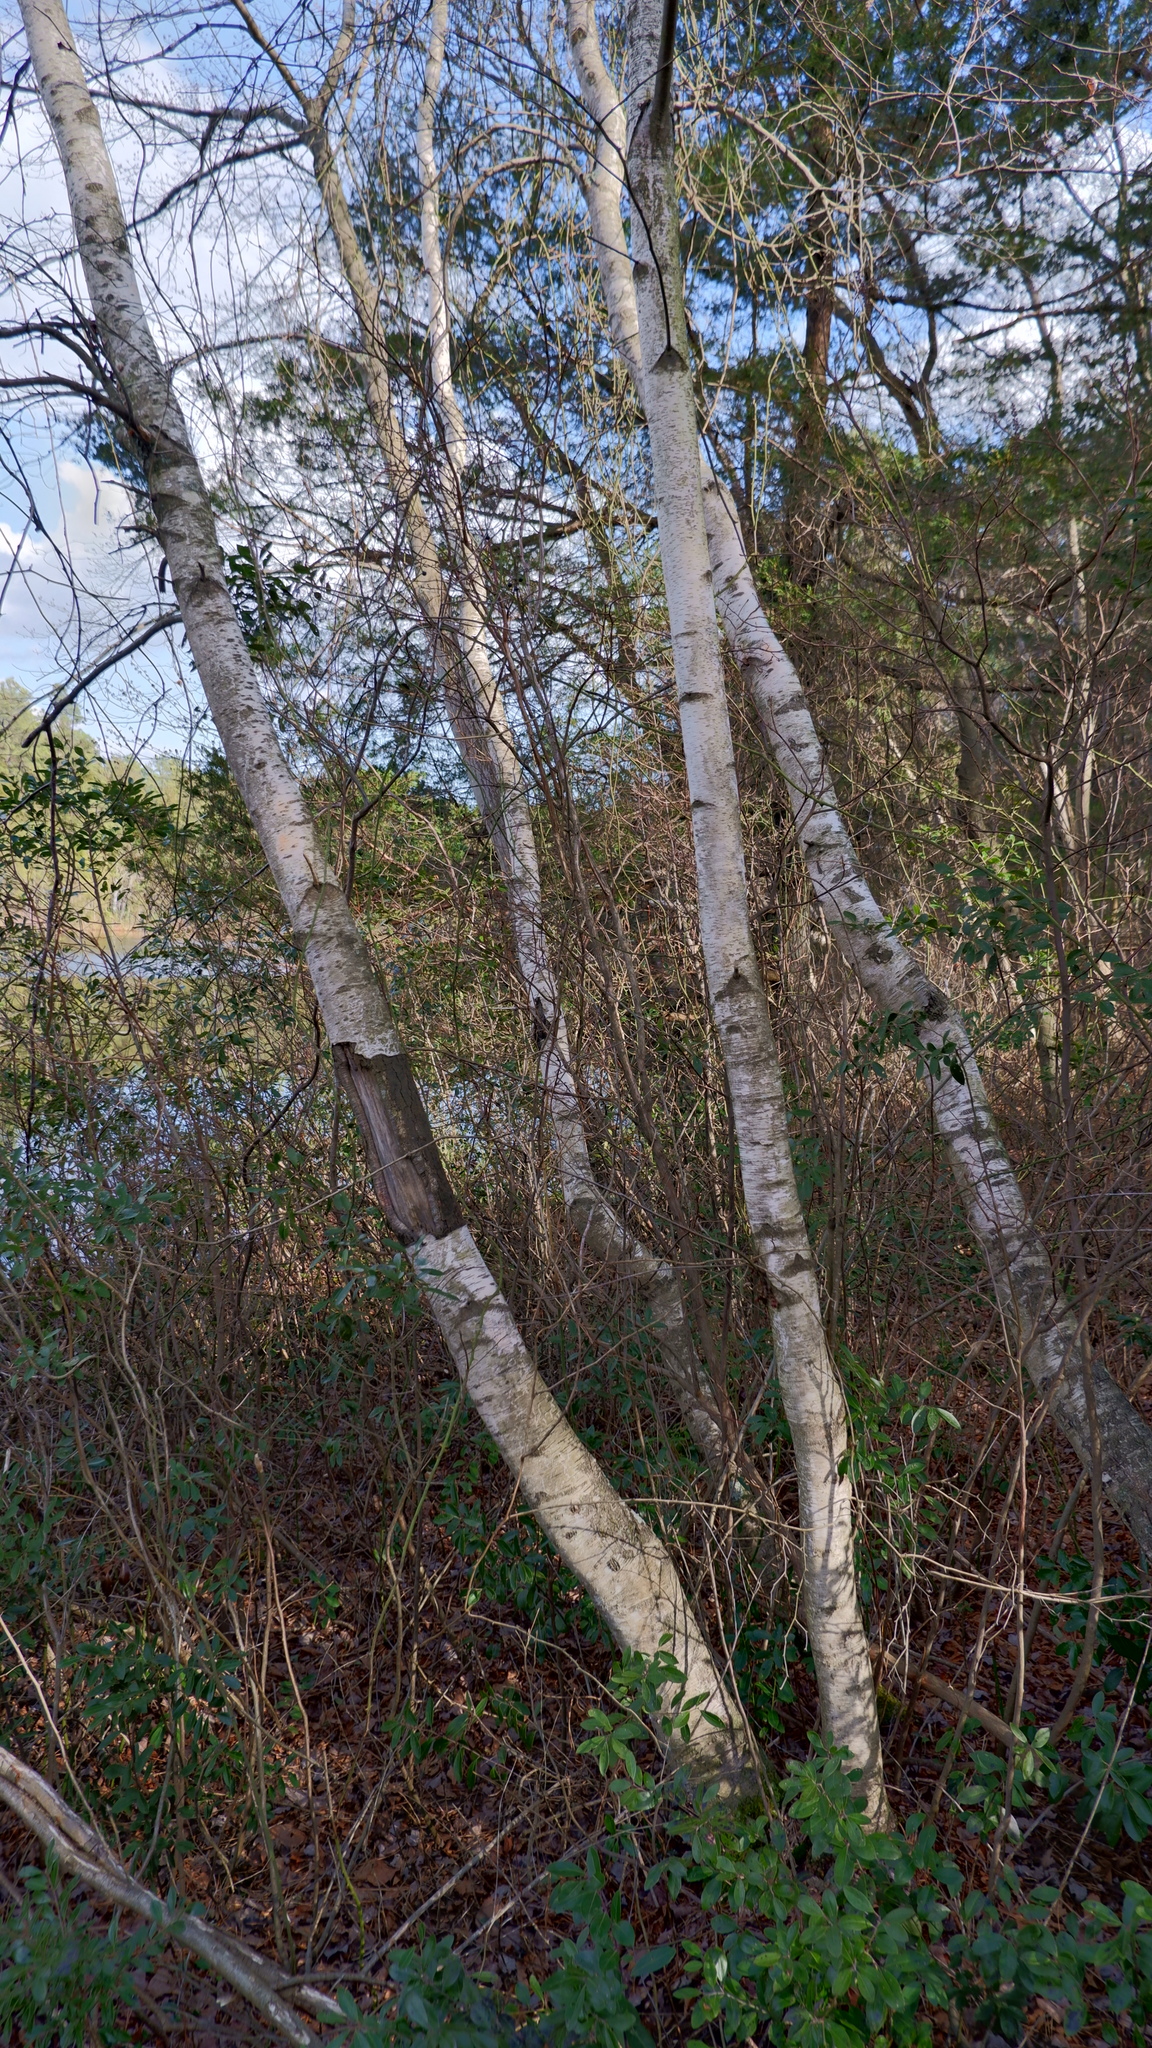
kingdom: Plantae
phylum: Tracheophyta
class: Magnoliopsida
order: Fagales
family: Betulaceae
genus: Betula
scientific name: Betula populifolia
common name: Fire birch
